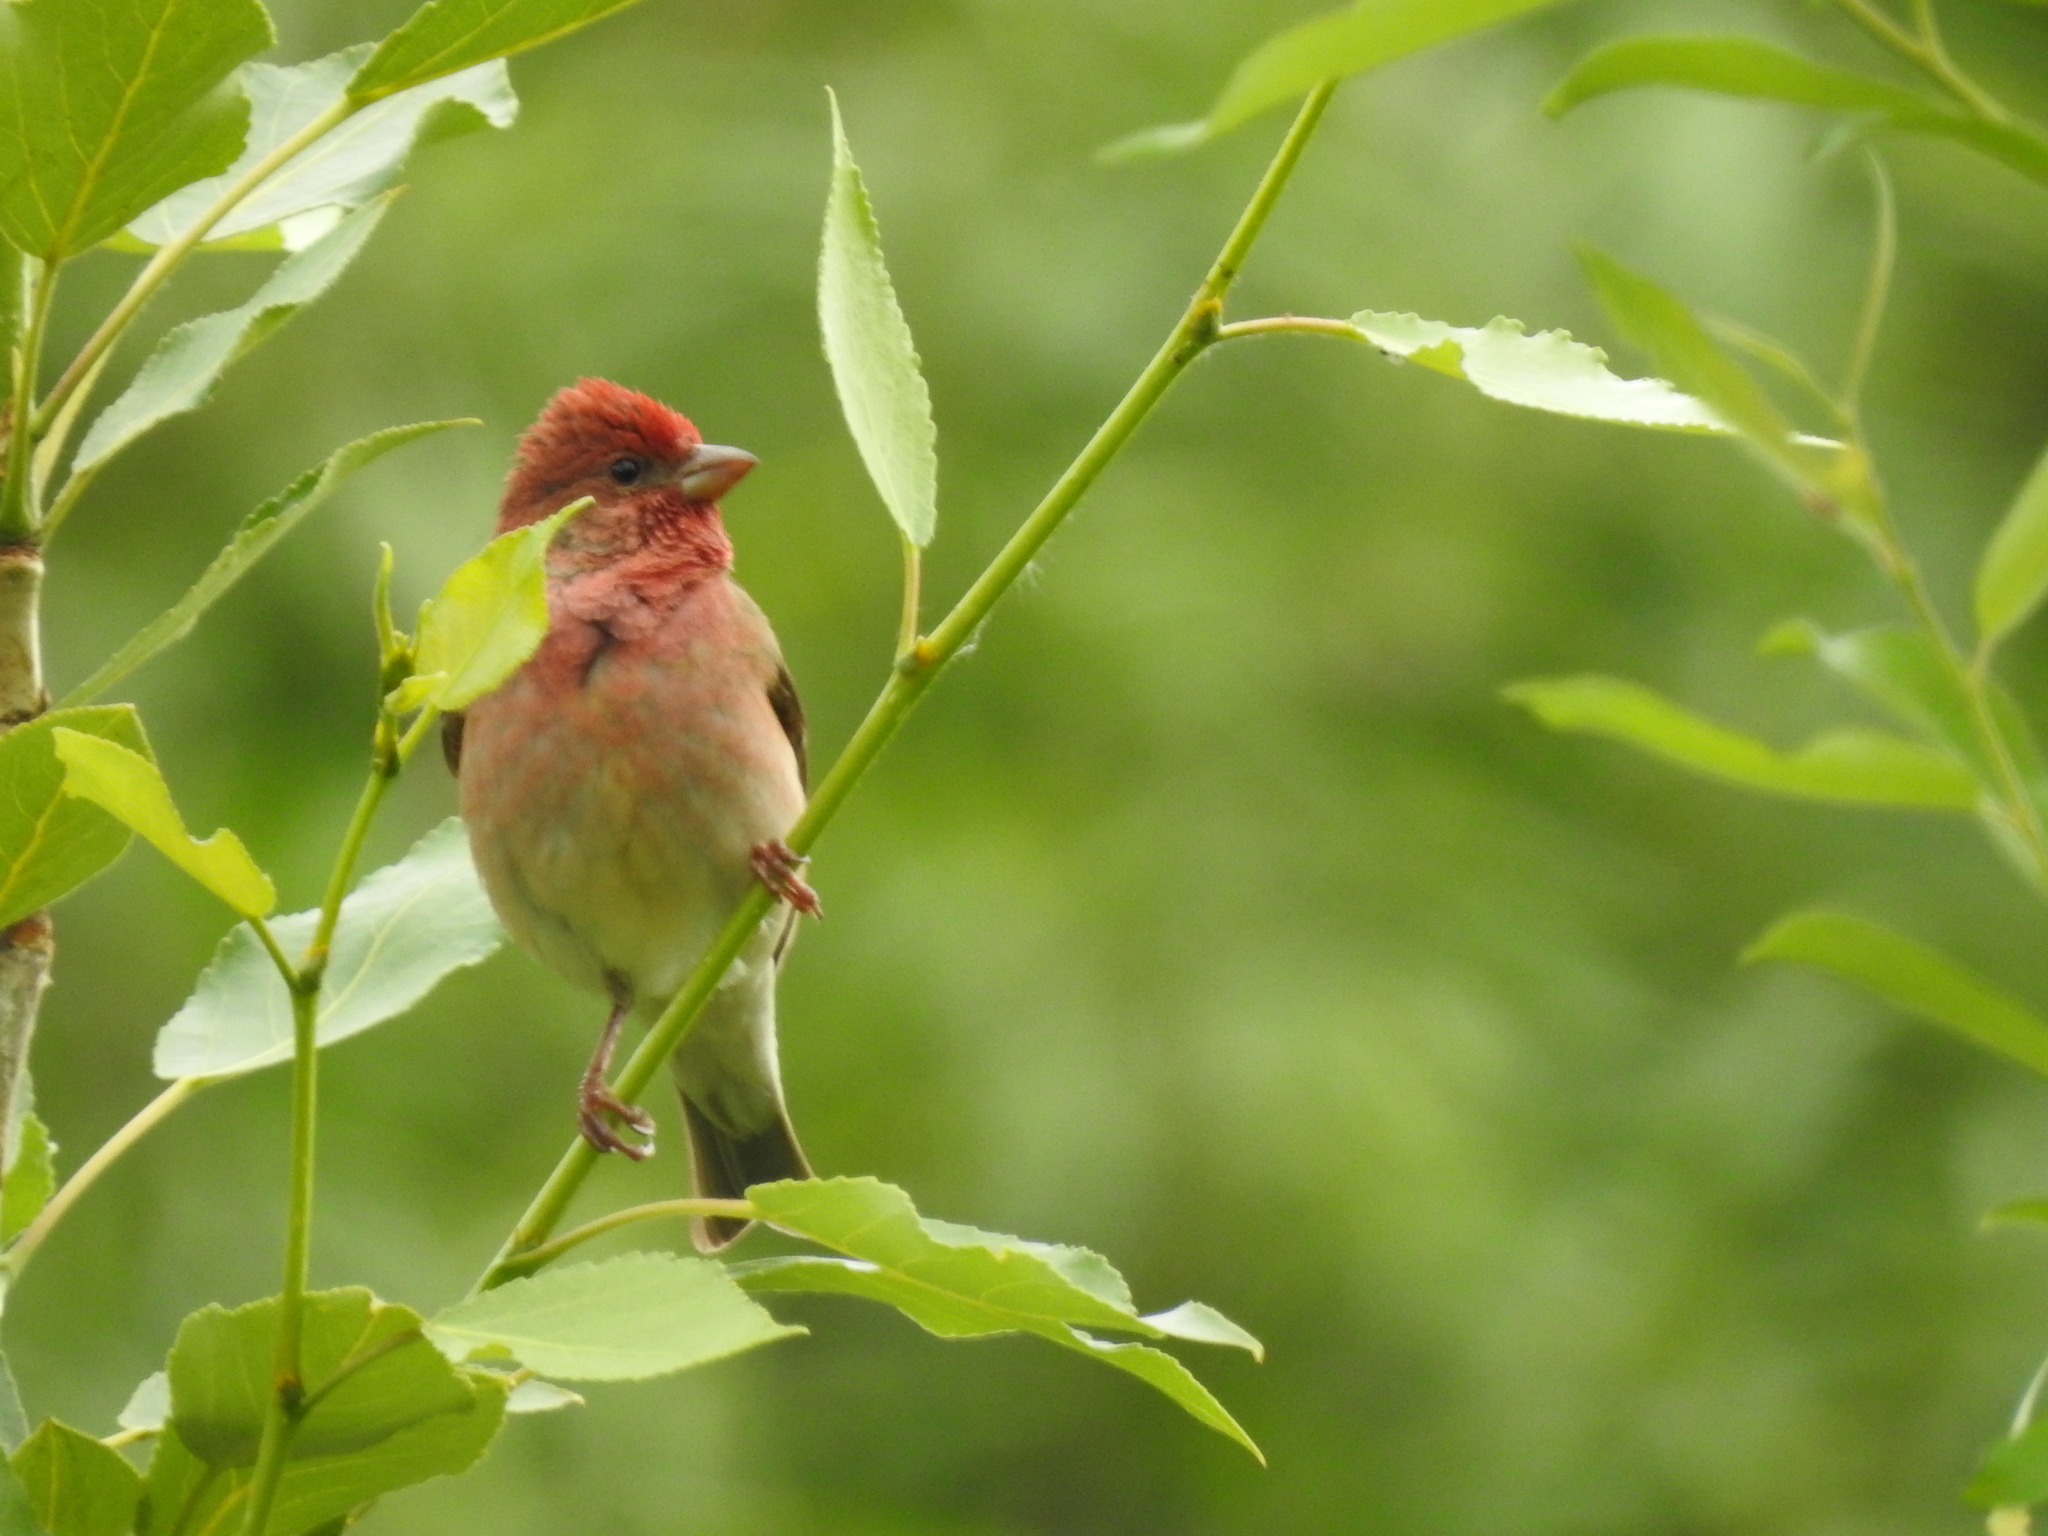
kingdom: Animalia
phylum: Chordata
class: Aves
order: Passeriformes
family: Fringillidae
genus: Carpodacus
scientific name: Carpodacus erythrinus
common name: Common rosefinch
